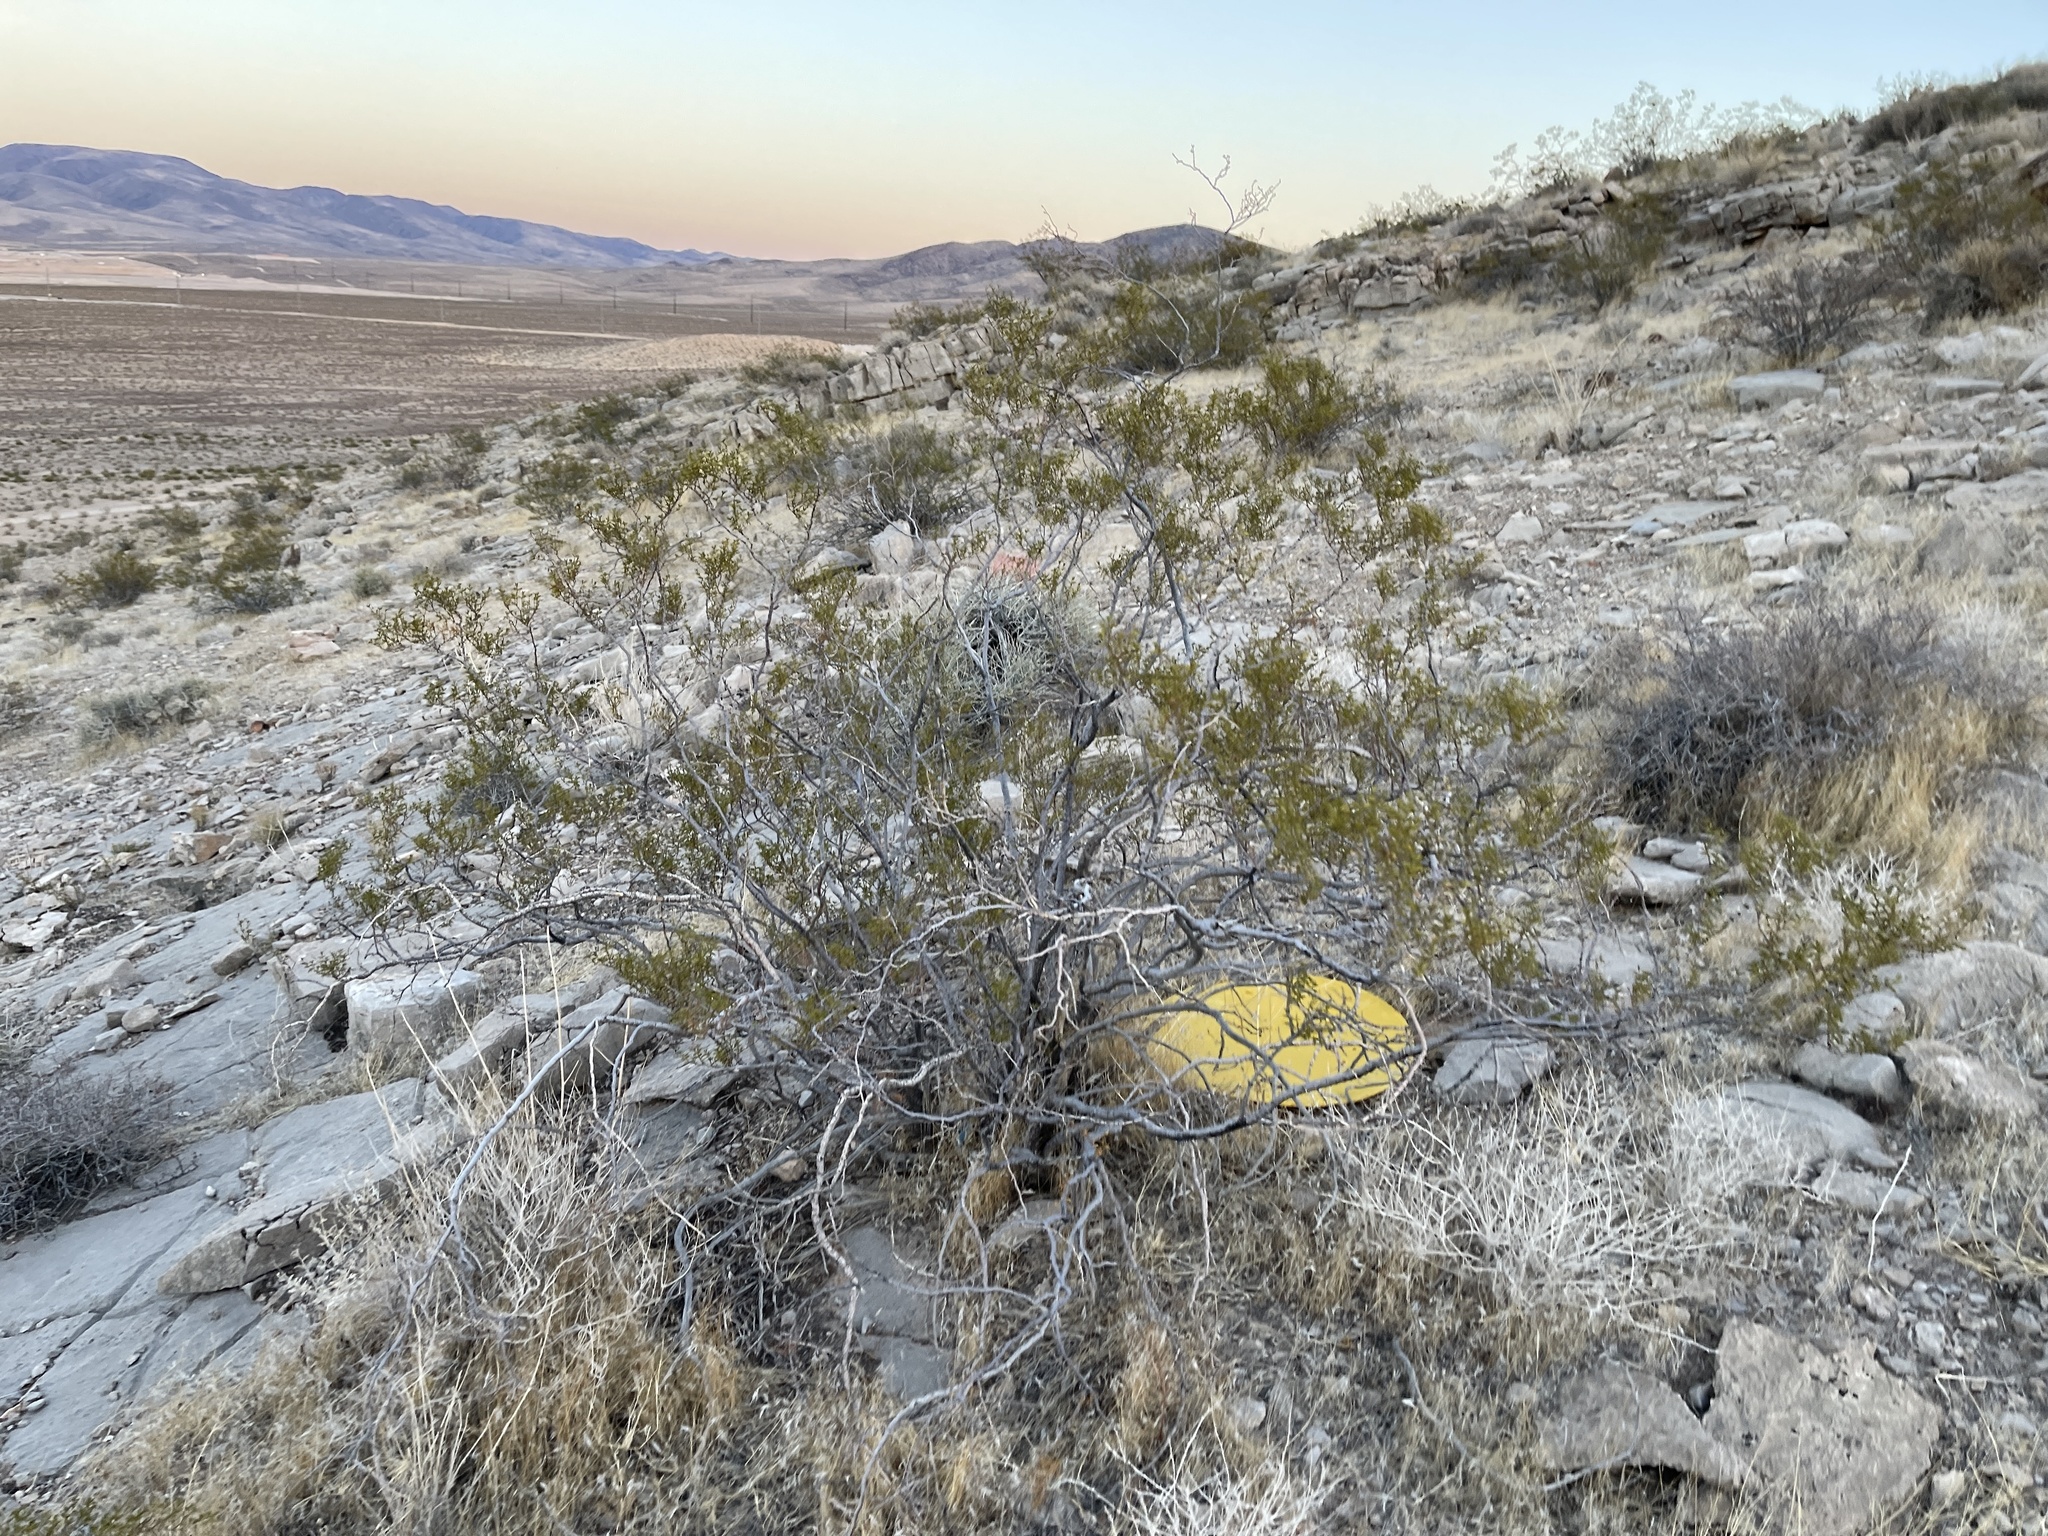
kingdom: Plantae
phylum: Tracheophyta
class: Magnoliopsida
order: Zygophyllales
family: Zygophyllaceae
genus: Larrea
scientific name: Larrea tridentata
